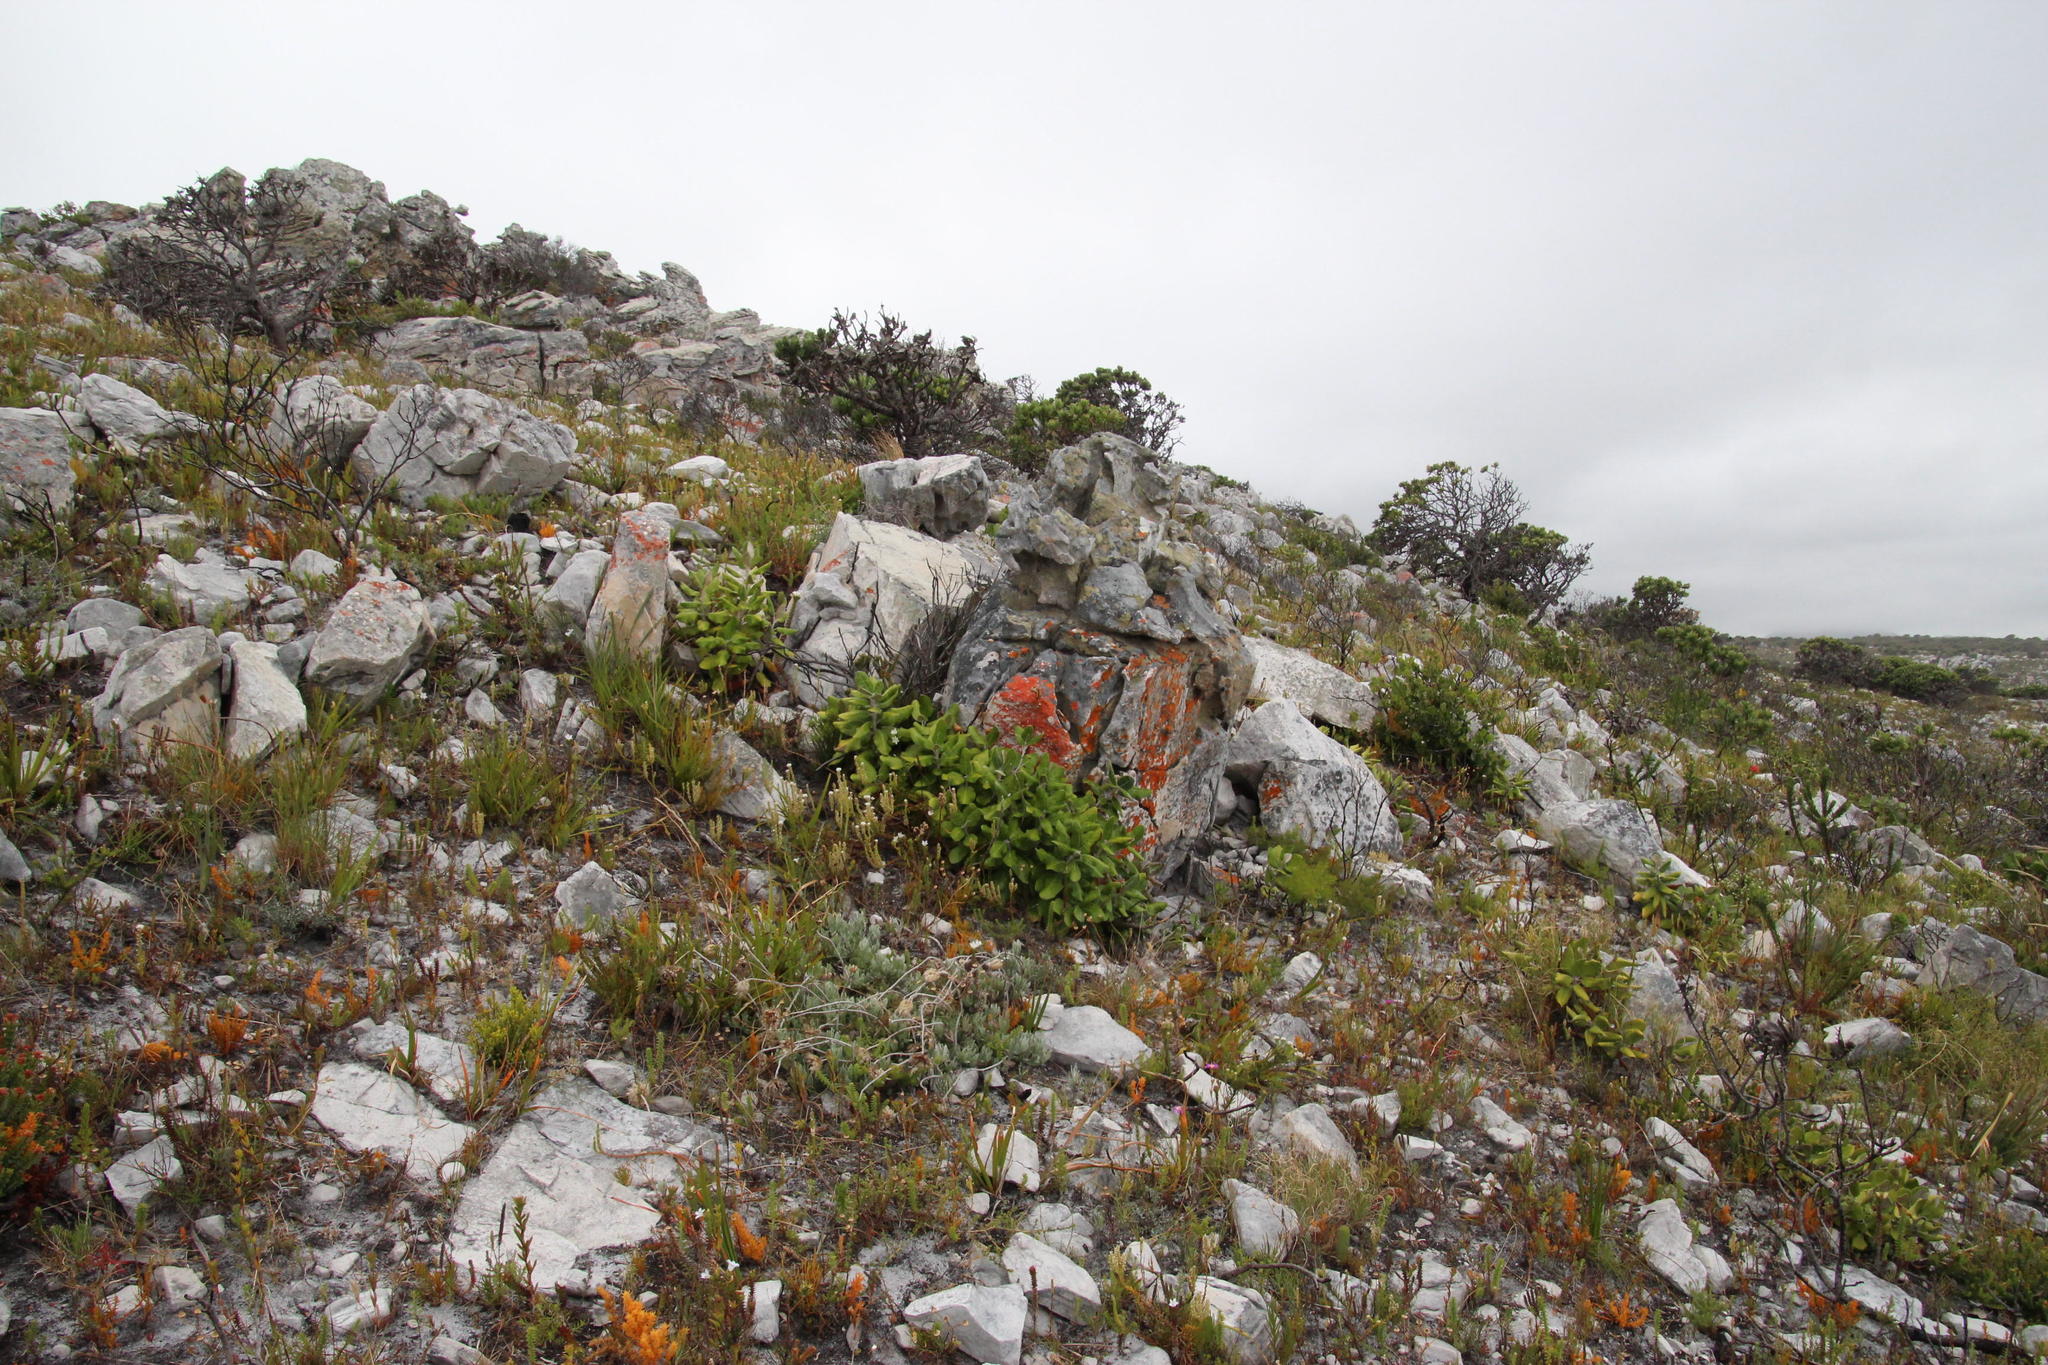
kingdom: Plantae
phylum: Tracheophyta
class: Magnoliopsida
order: Asterales
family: Asteraceae
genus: Capelio
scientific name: Capelio tabularis
